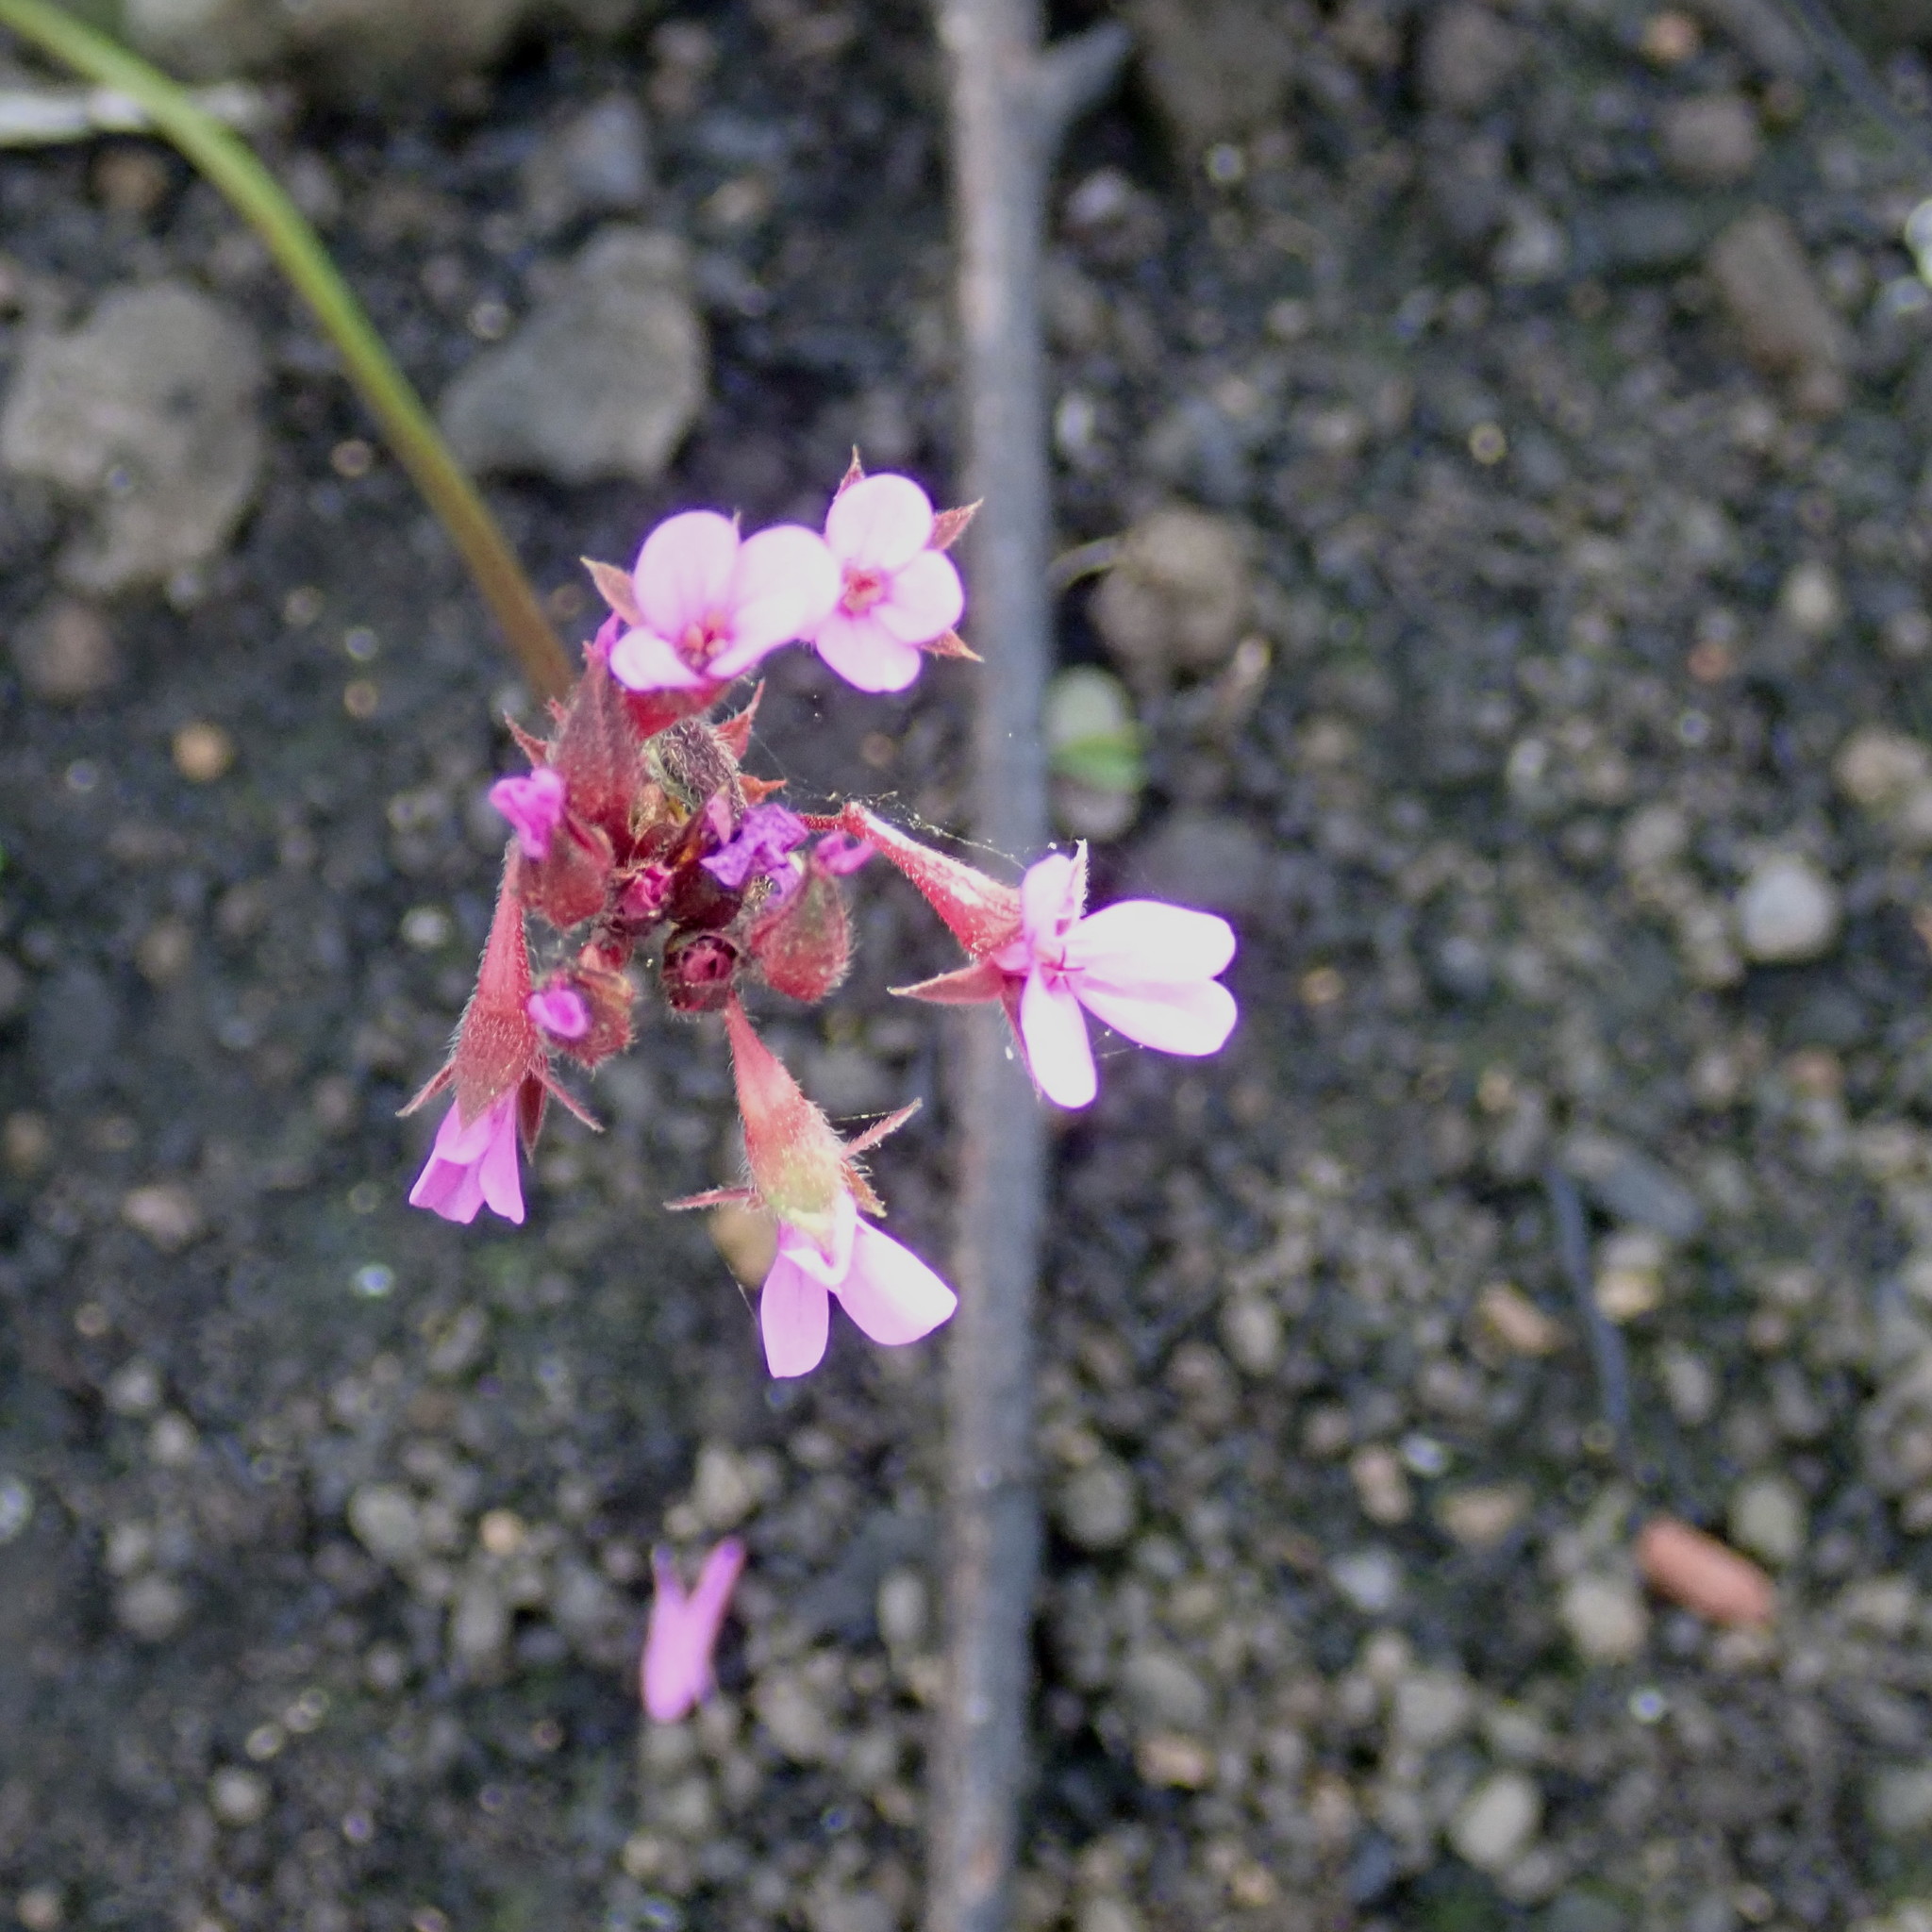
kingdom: Plantae
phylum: Tracheophyta
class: Magnoliopsida
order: Geraniales
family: Geraniaceae
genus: Pelargonium
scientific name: Pelargonium grossularioides
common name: Gooseberry geranium
